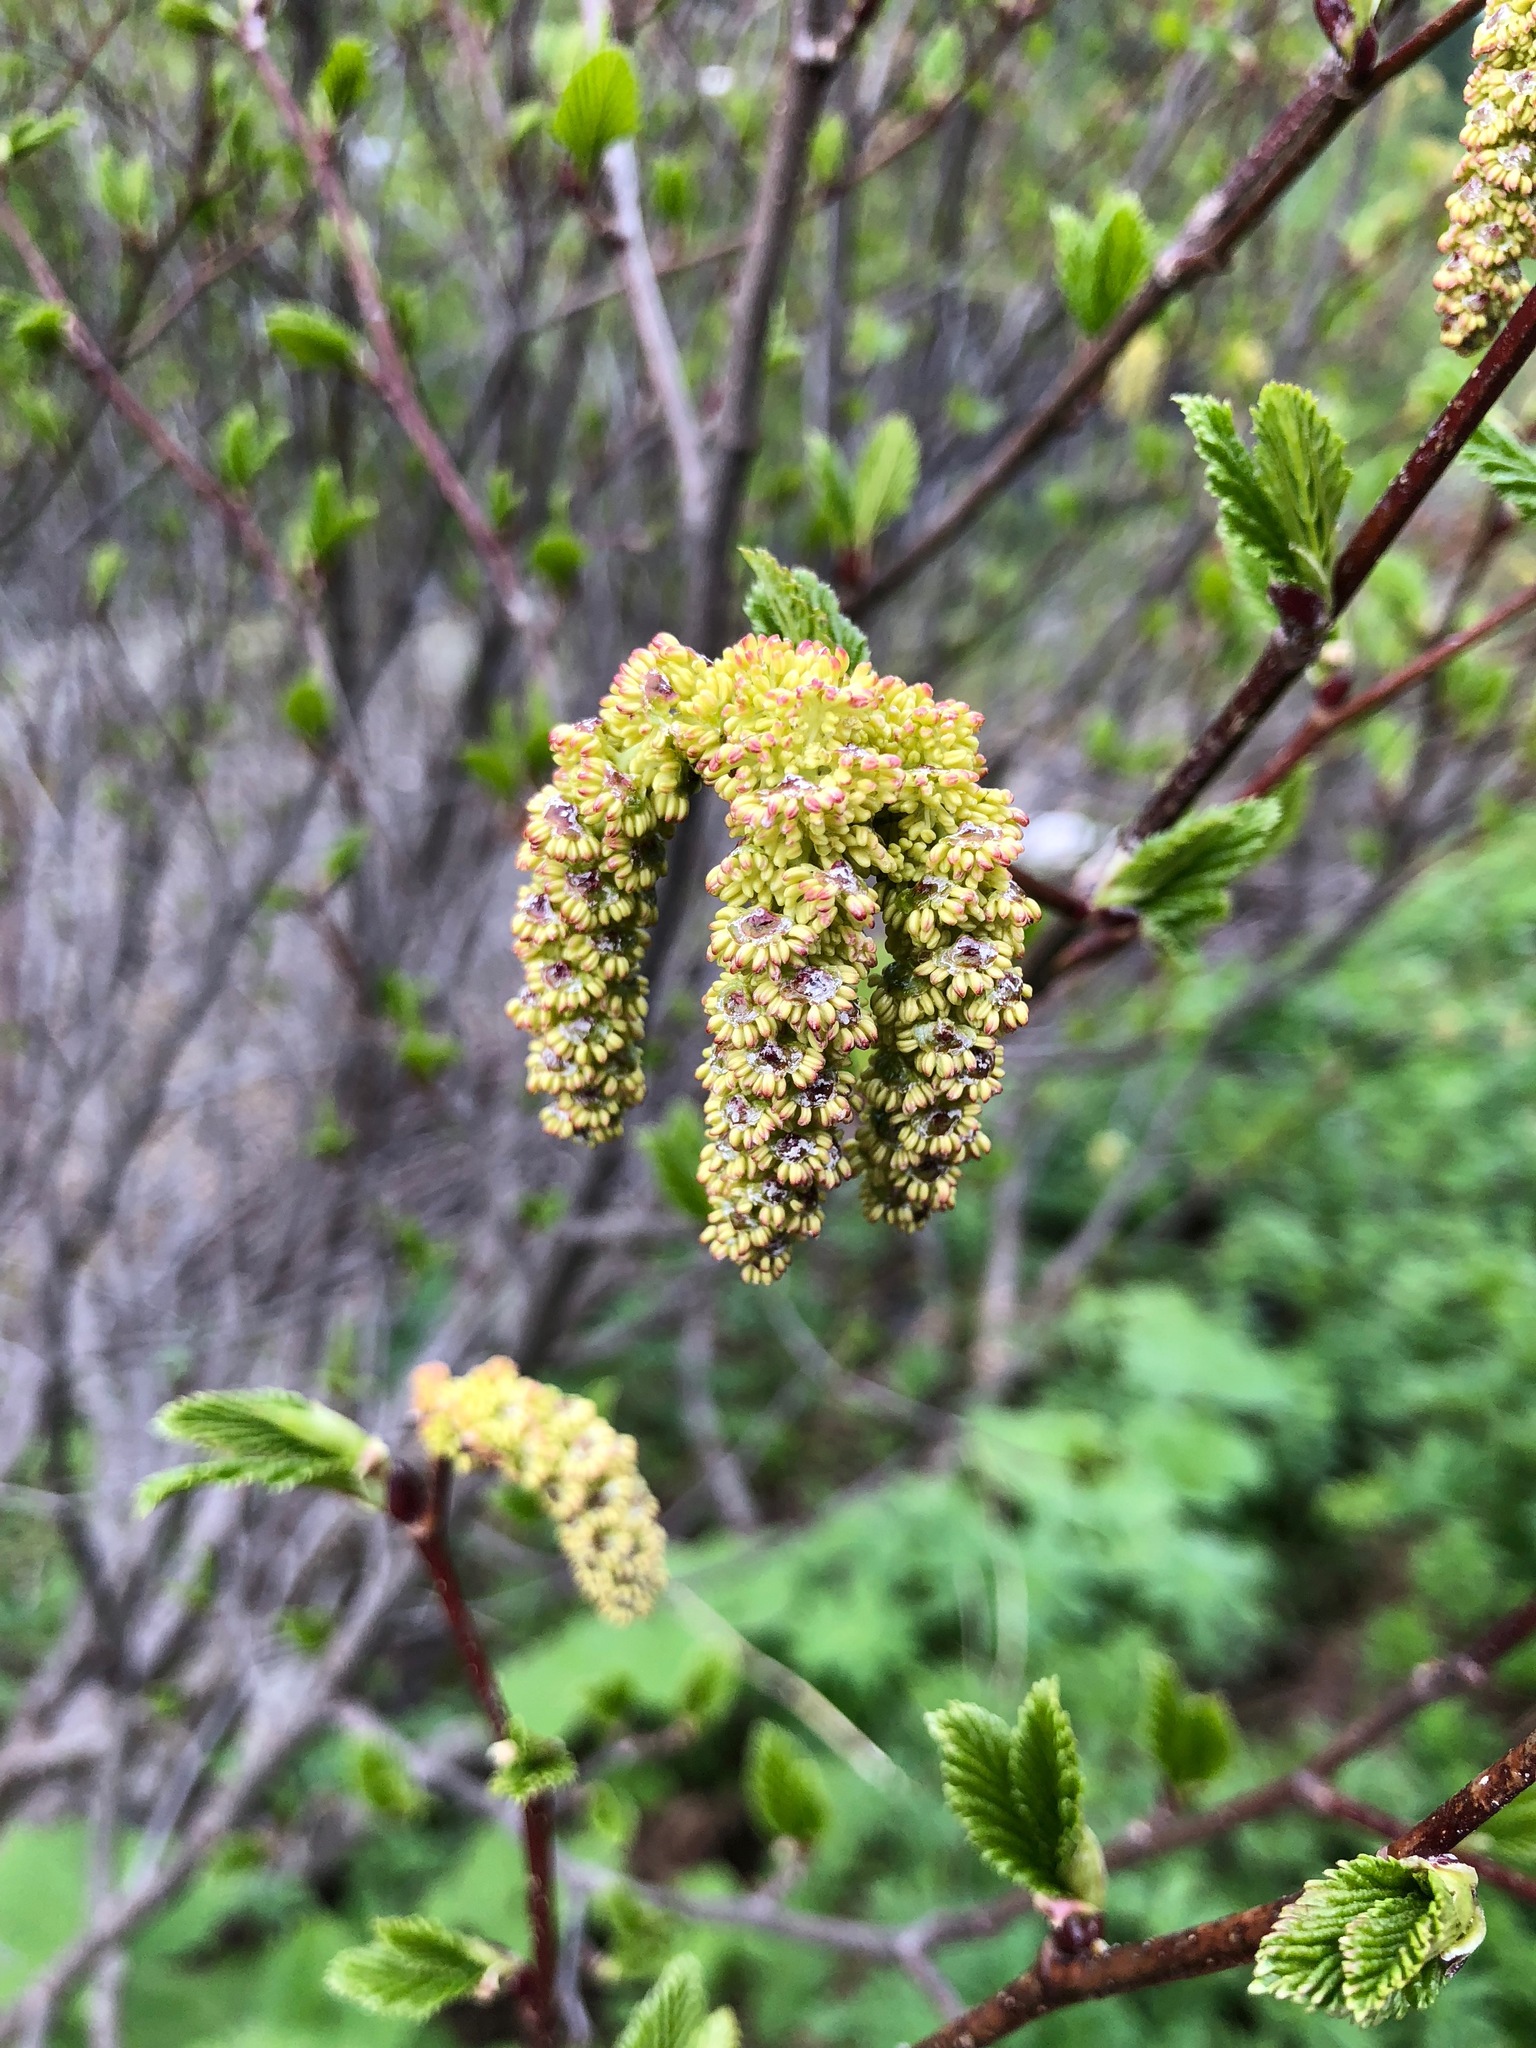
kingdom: Plantae
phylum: Tracheophyta
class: Magnoliopsida
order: Fagales
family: Betulaceae
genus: Alnus
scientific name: Alnus alnobetula
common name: Green alder
